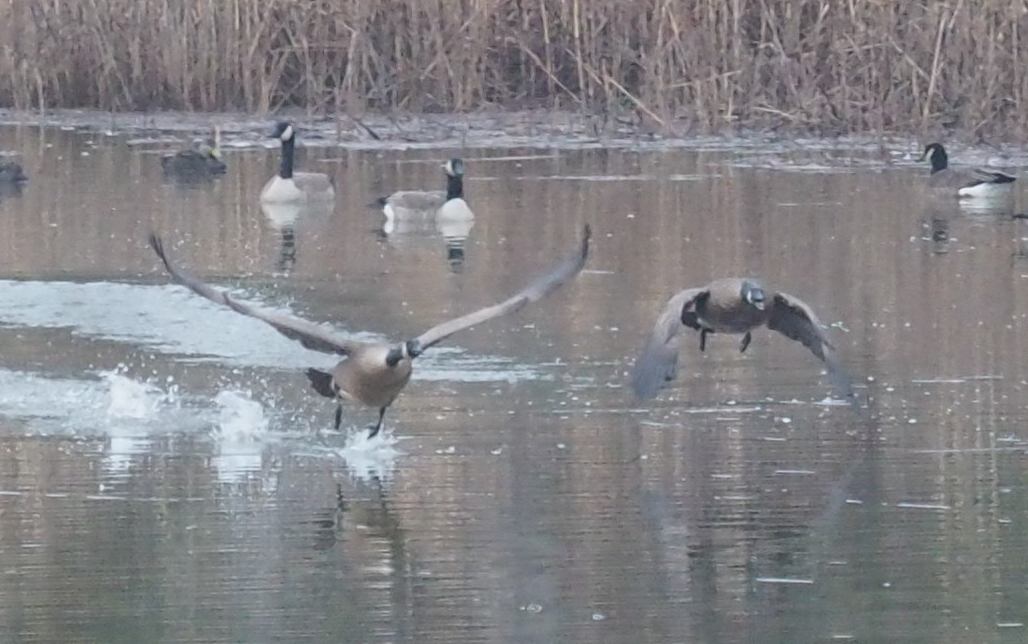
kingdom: Animalia
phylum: Chordata
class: Aves
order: Anseriformes
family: Anatidae
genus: Branta
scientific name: Branta canadensis
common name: Canada goose
